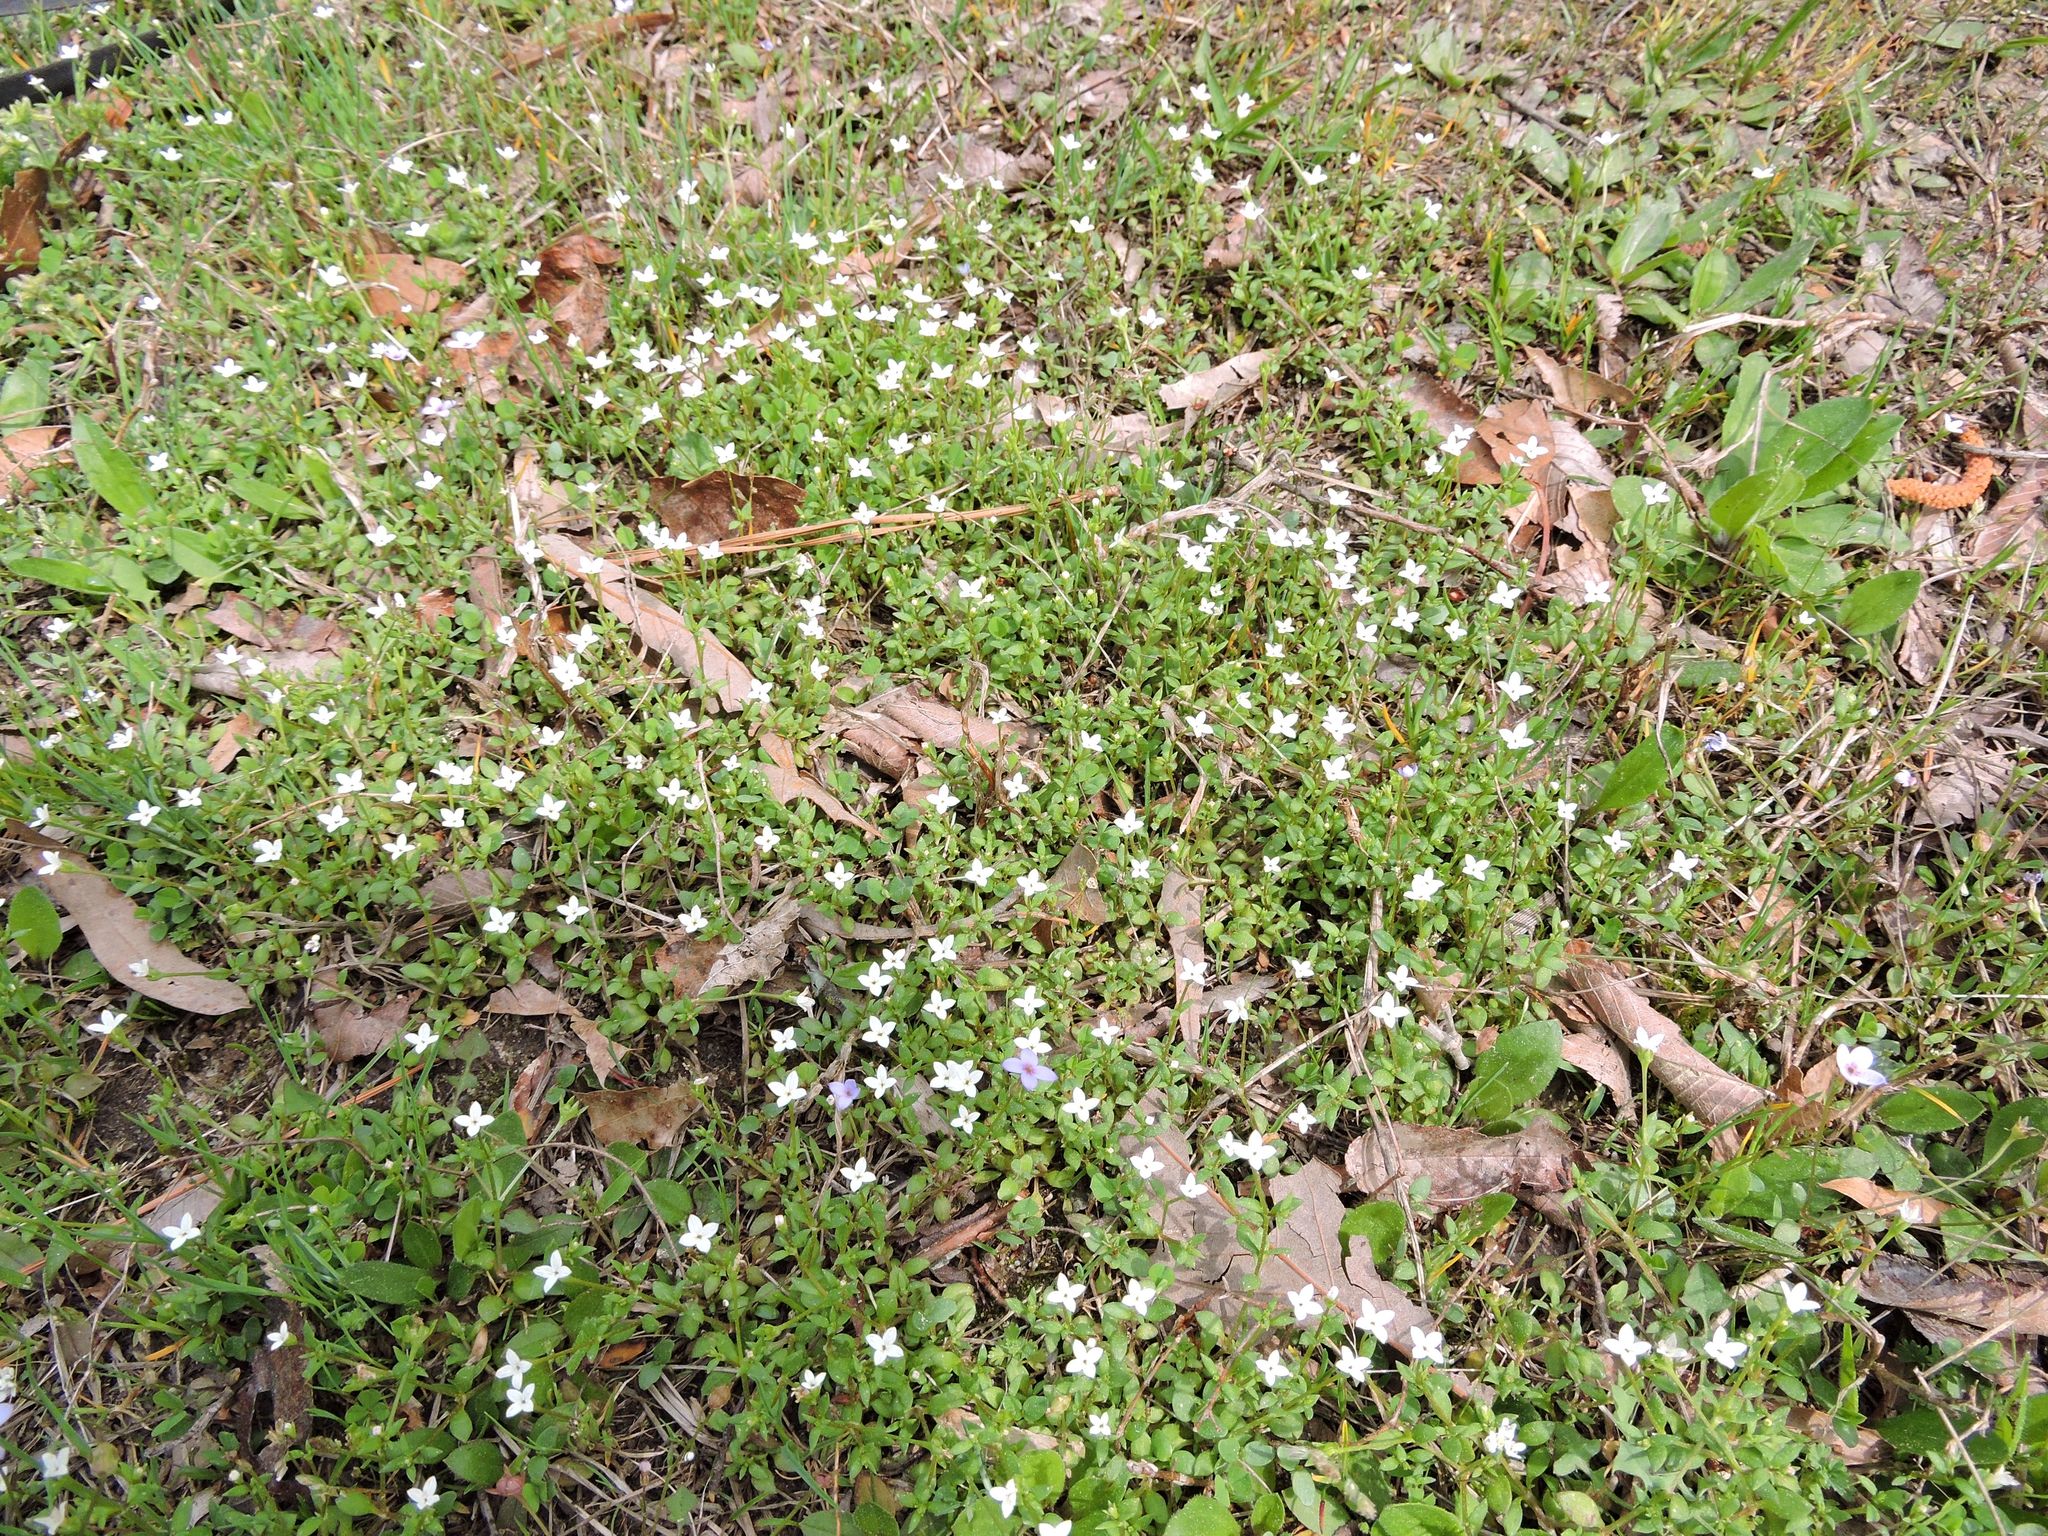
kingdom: Plantae
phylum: Tracheophyta
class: Magnoliopsida
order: Gentianales
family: Rubiaceae
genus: Houstonia
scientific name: Houstonia caerulea
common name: Bluets
